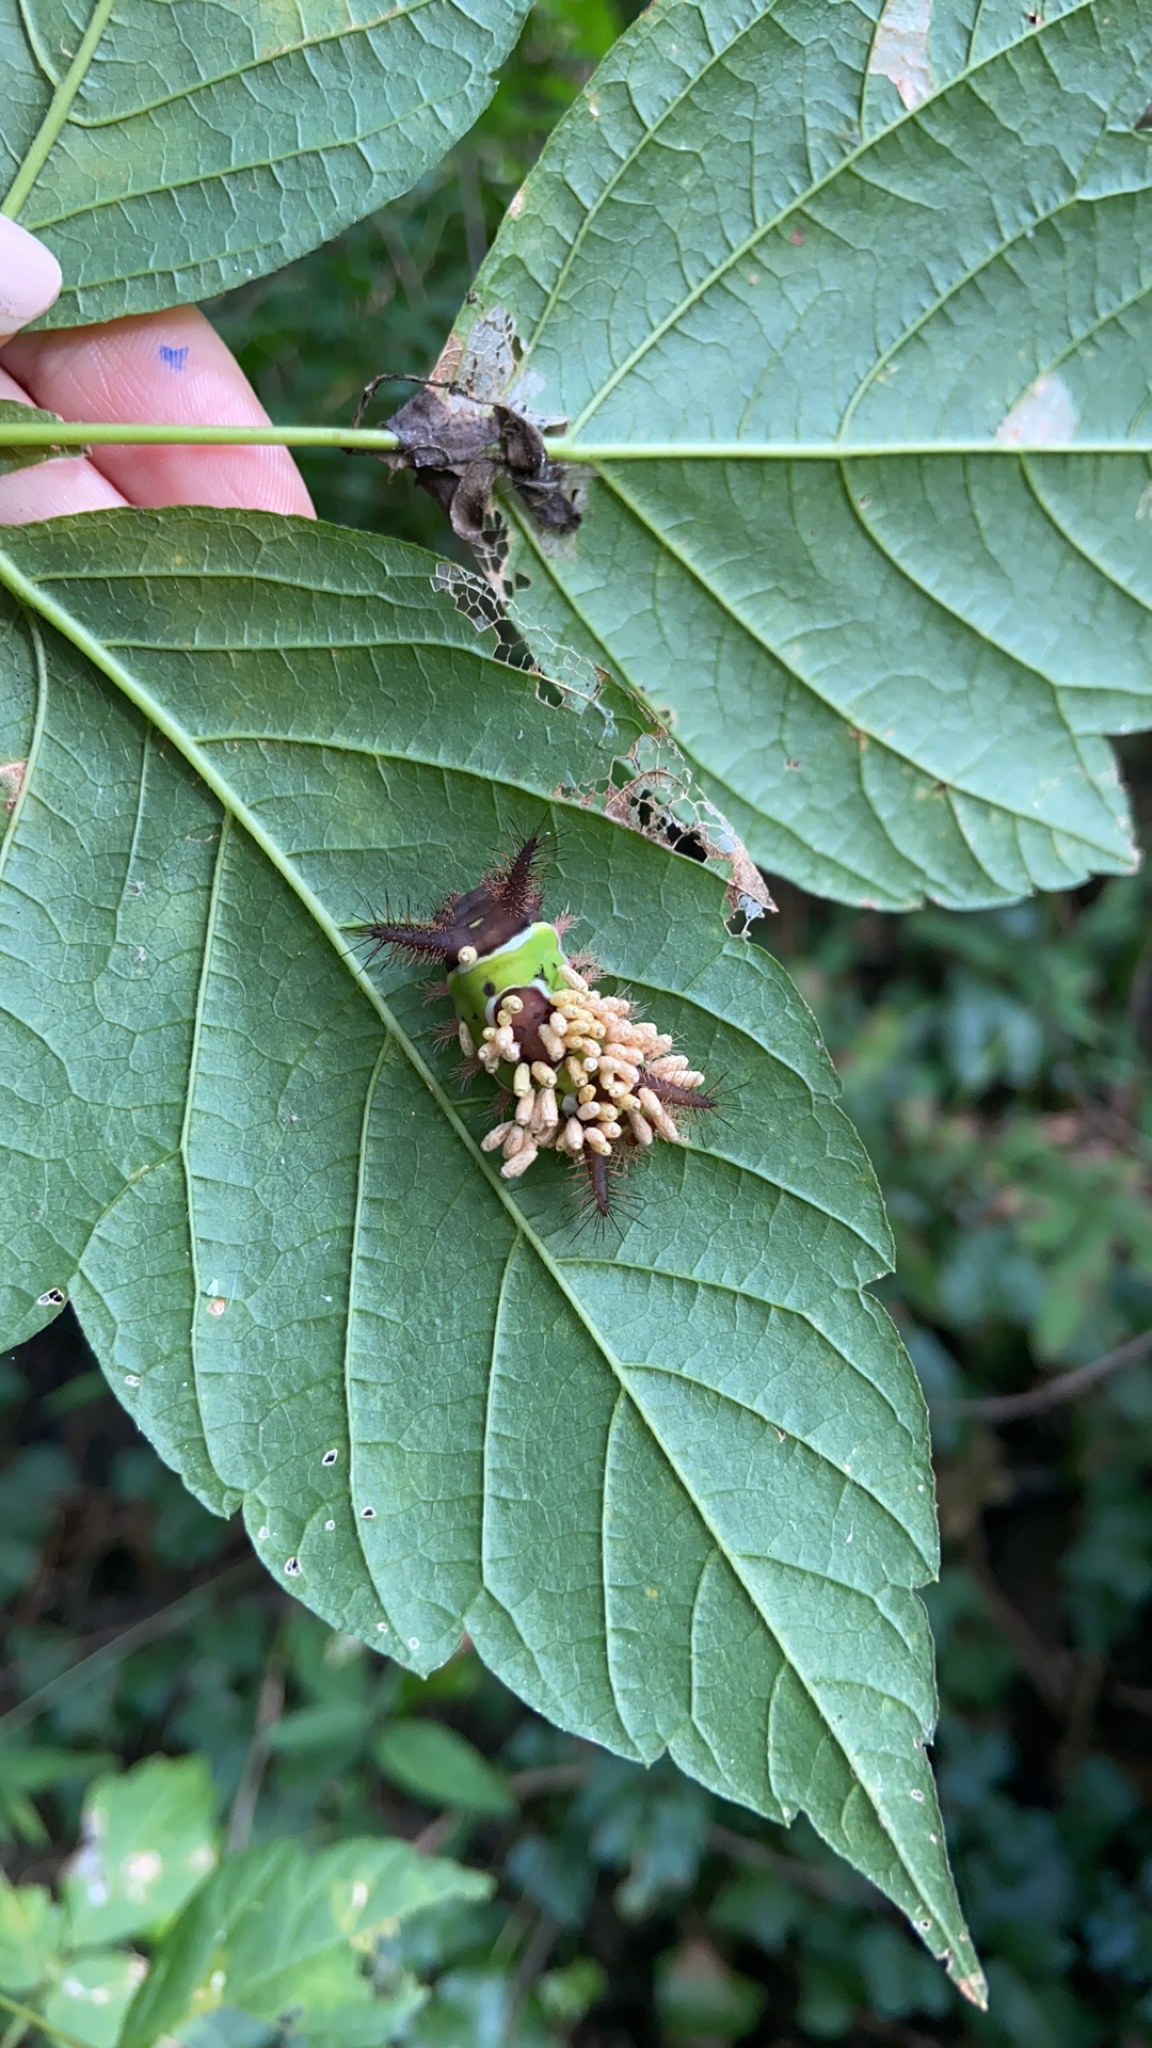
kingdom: Animalia
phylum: Arthropoda
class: Insecta
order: Lepidoptera
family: Limacodidae
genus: Acharia
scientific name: Acharia stimulea
